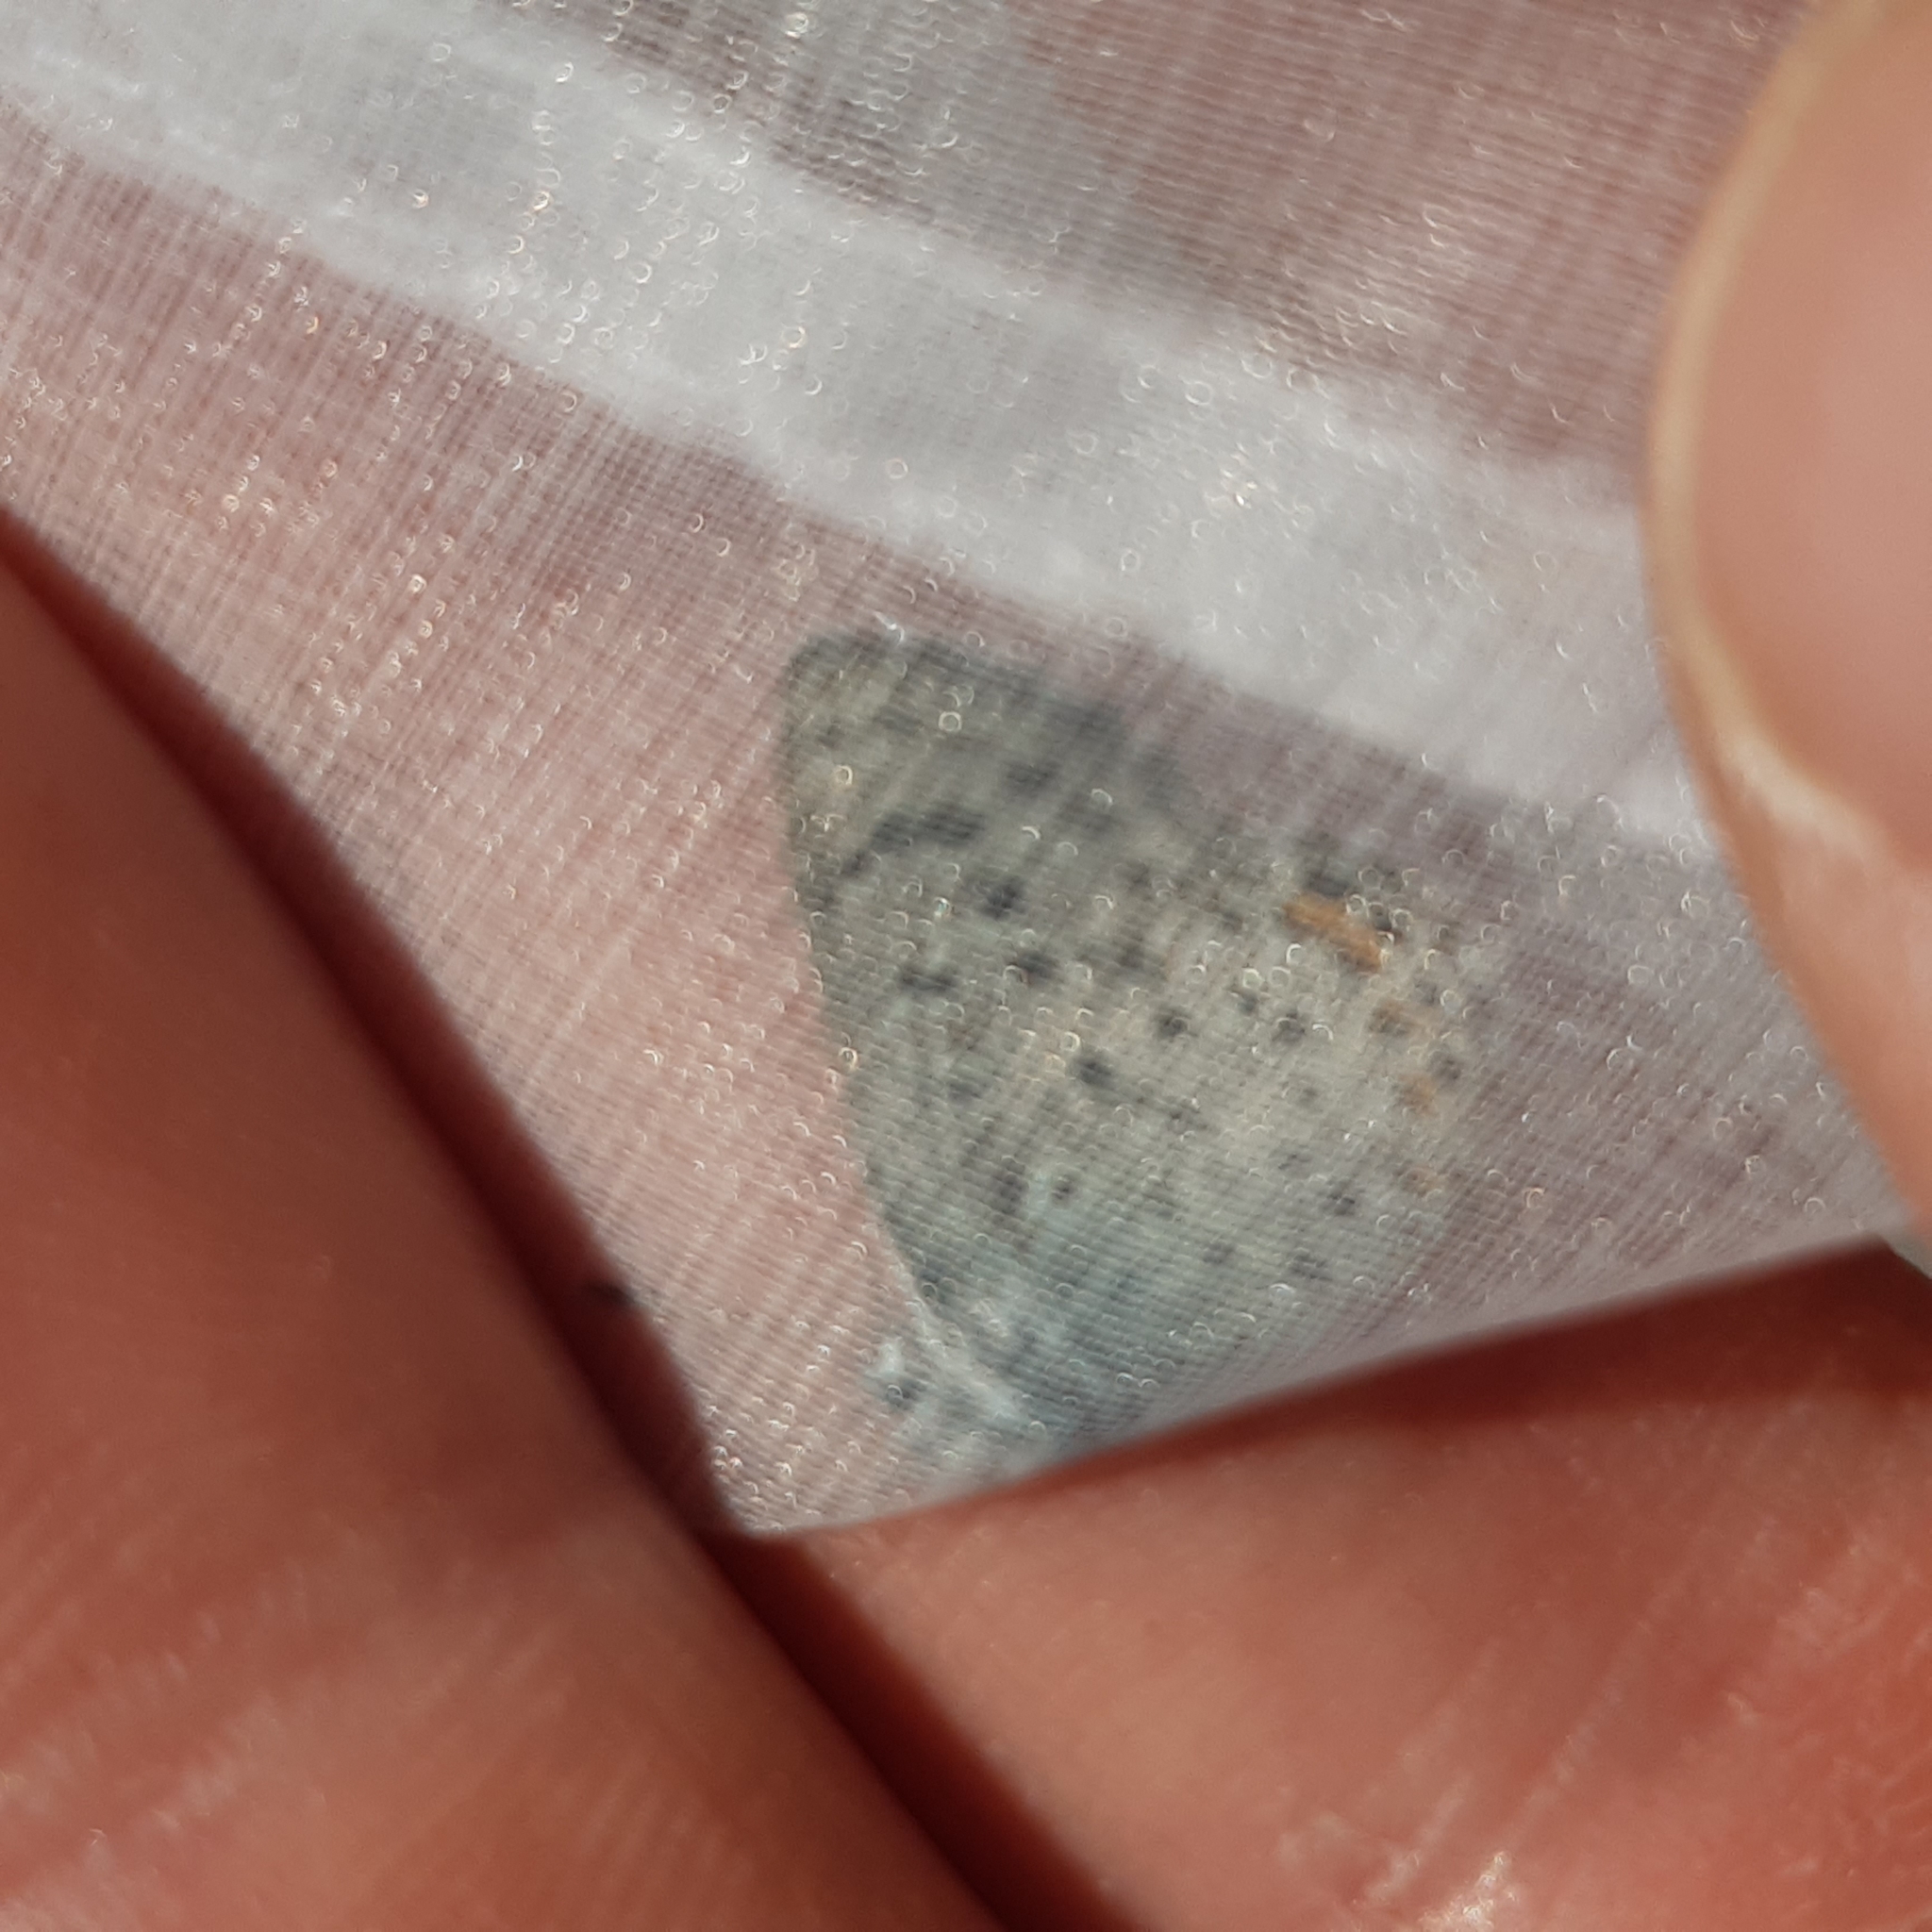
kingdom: Animalia
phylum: Arthropoda
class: Insecta
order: Lepidoptera
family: Lycaenidae
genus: Pseudophilotes
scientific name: Pseudophilotes baton
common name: Baton blue
